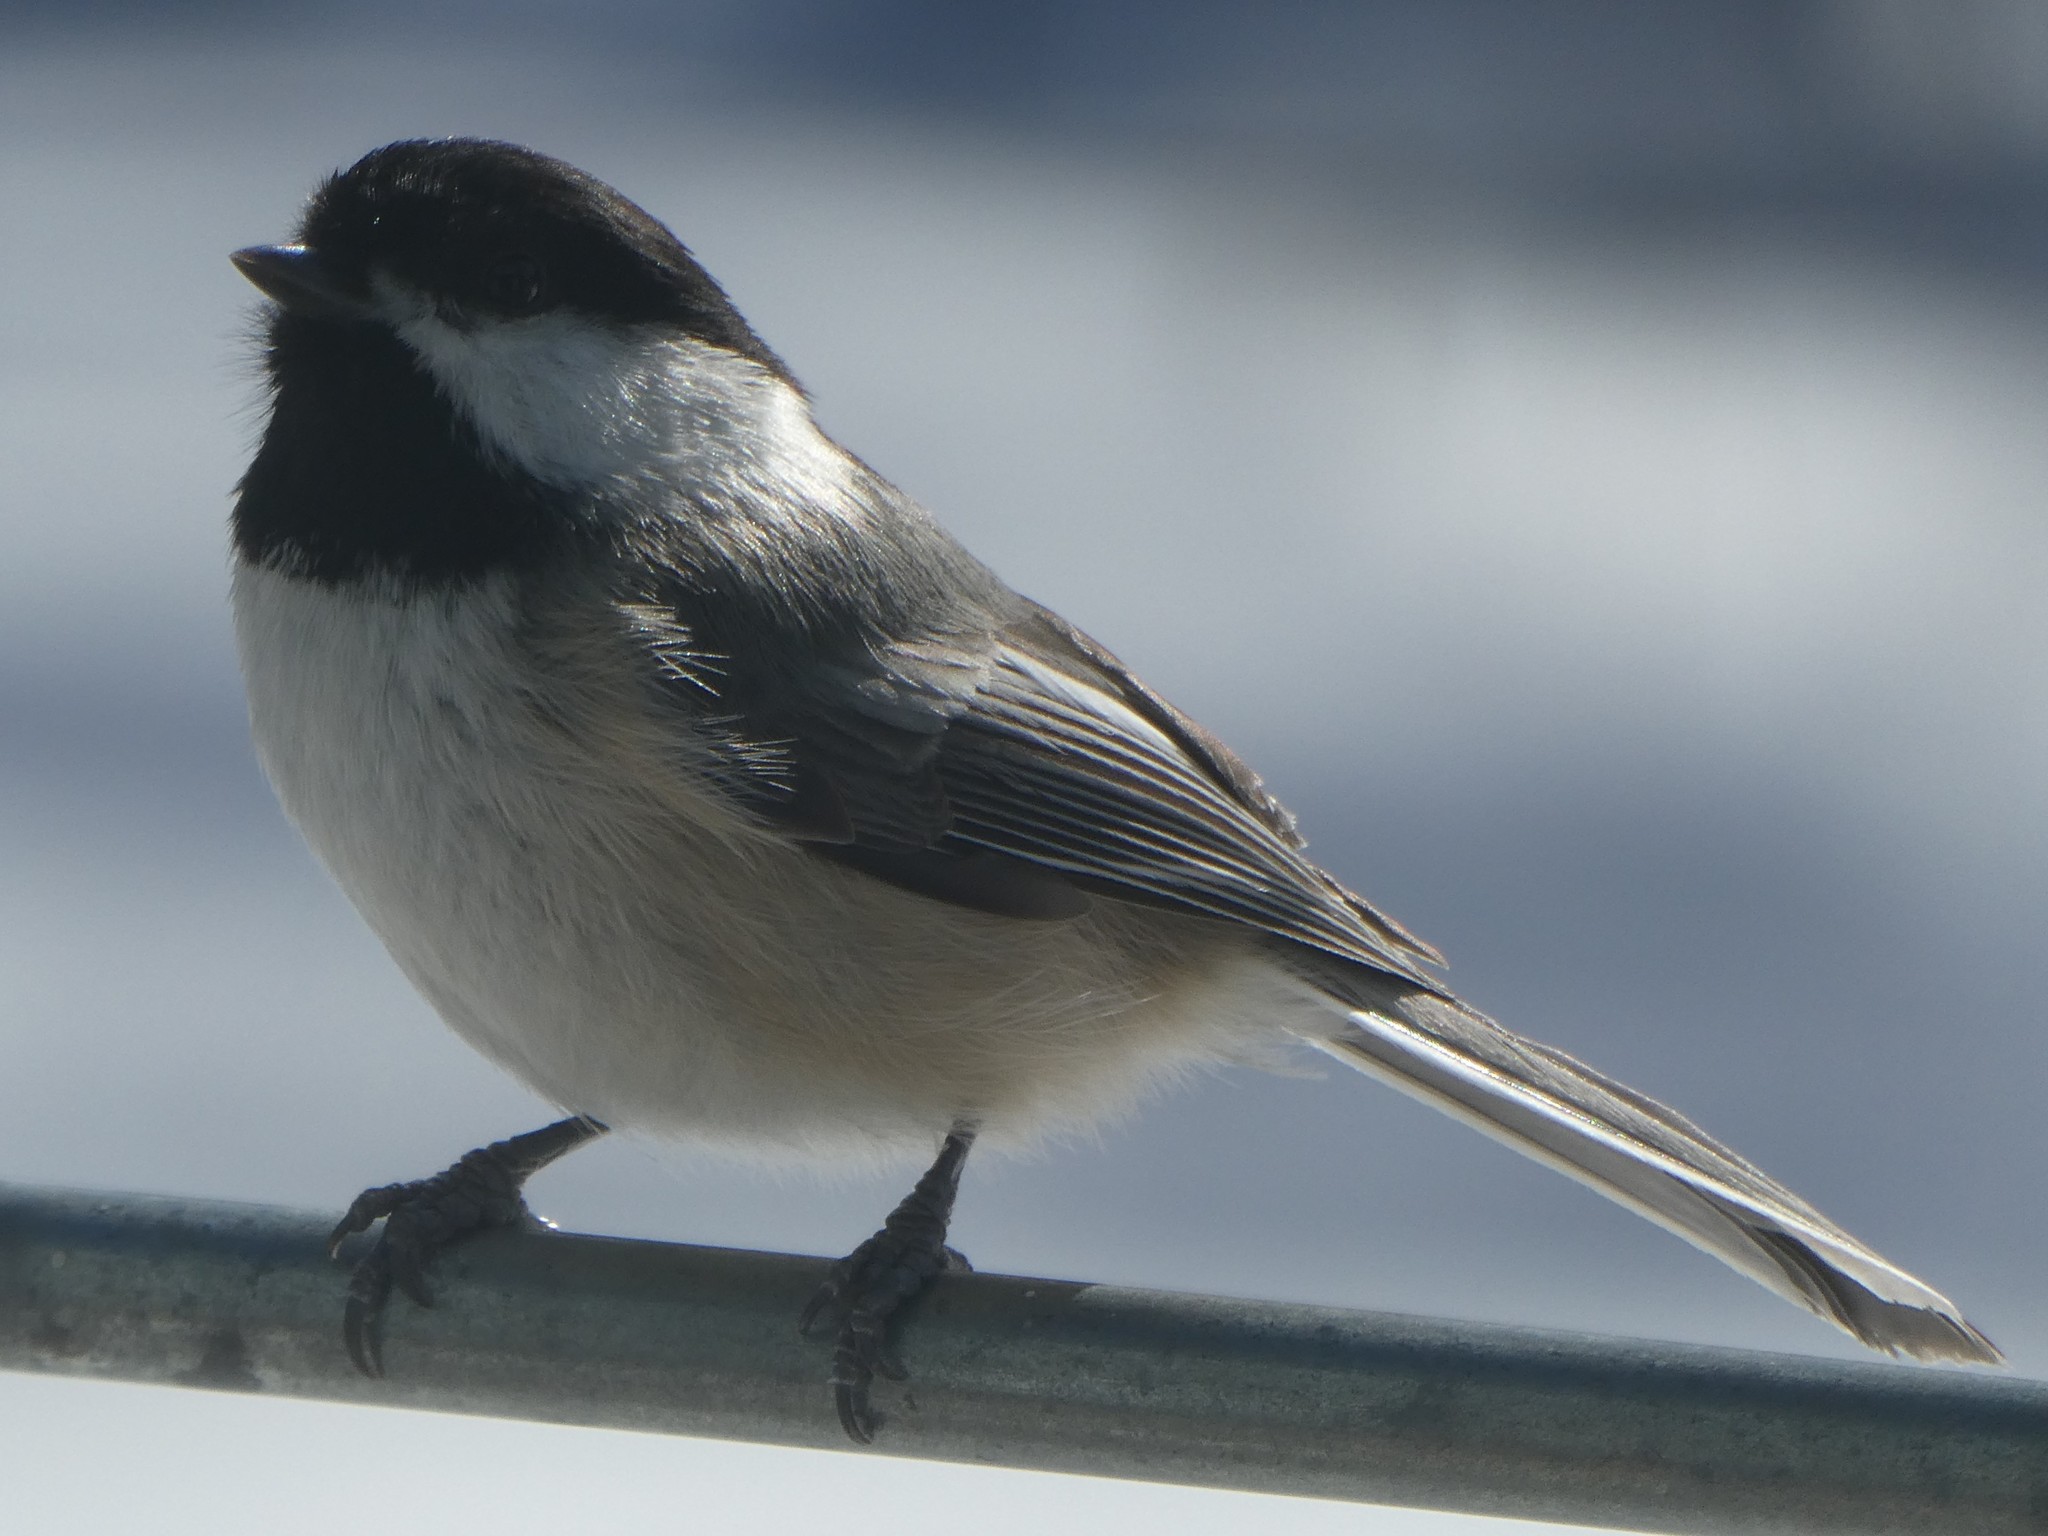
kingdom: Animalia
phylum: Chordata
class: Aves
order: Passeriformes
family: Paridae
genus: Poecile
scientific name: Poecile atricapillus
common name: Black-capped chickadee
